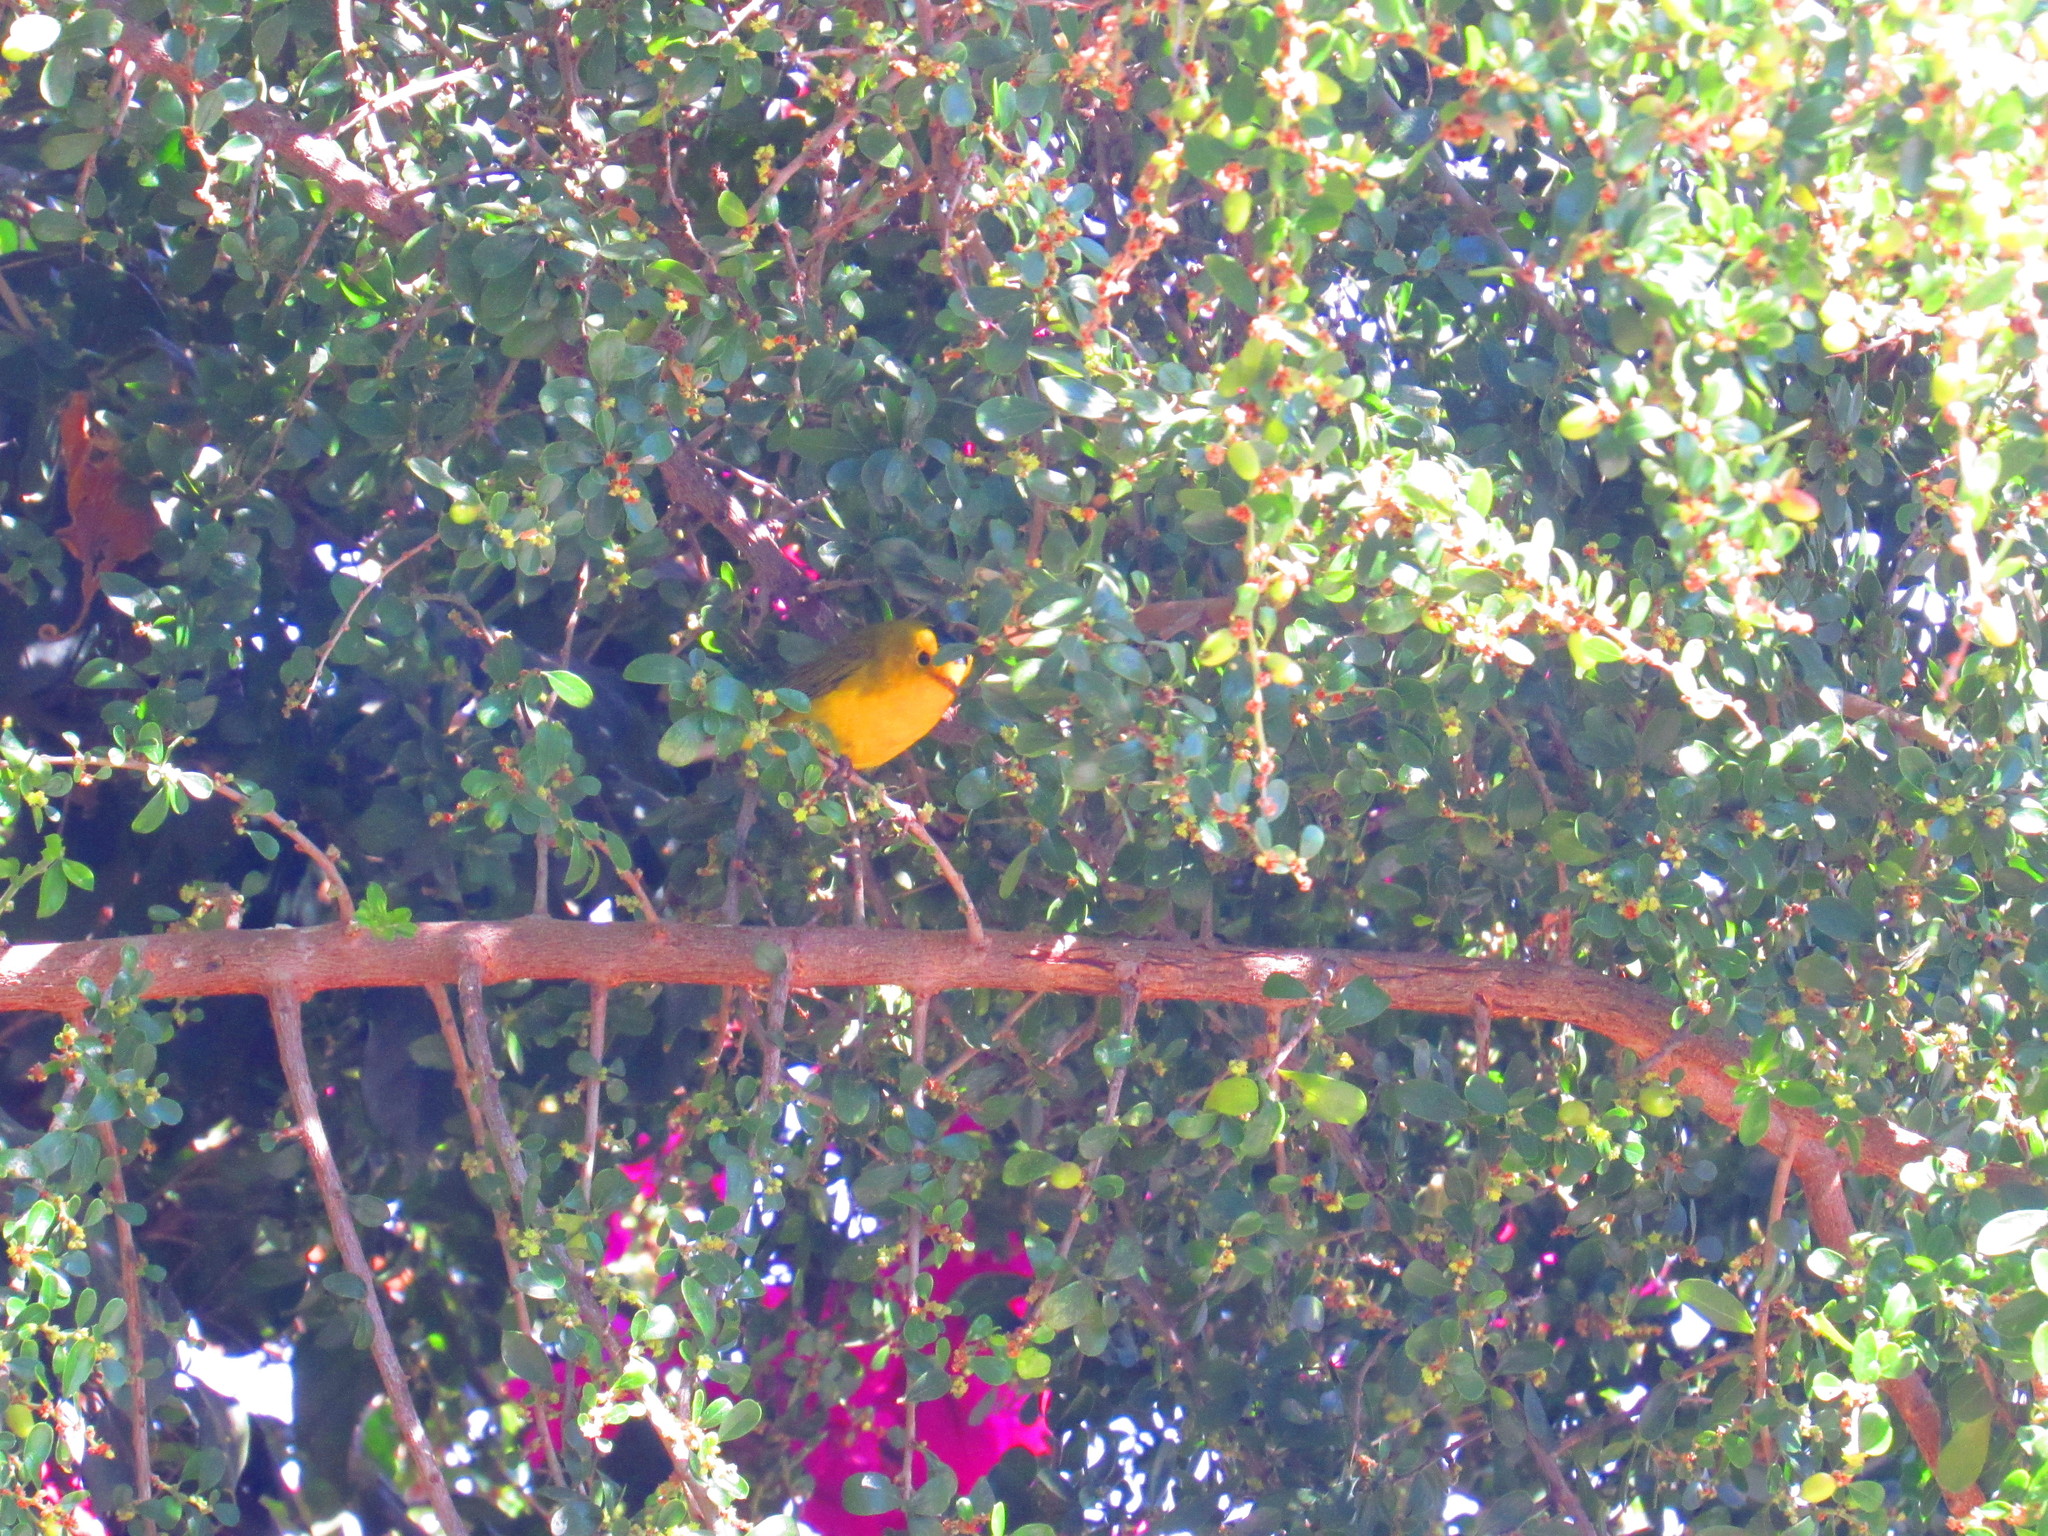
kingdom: Animalia
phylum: Chordata
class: Aves
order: Passeriformes
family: Parulidae
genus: Cardellina
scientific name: Cardellina pusilla
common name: Wilson's warbler
